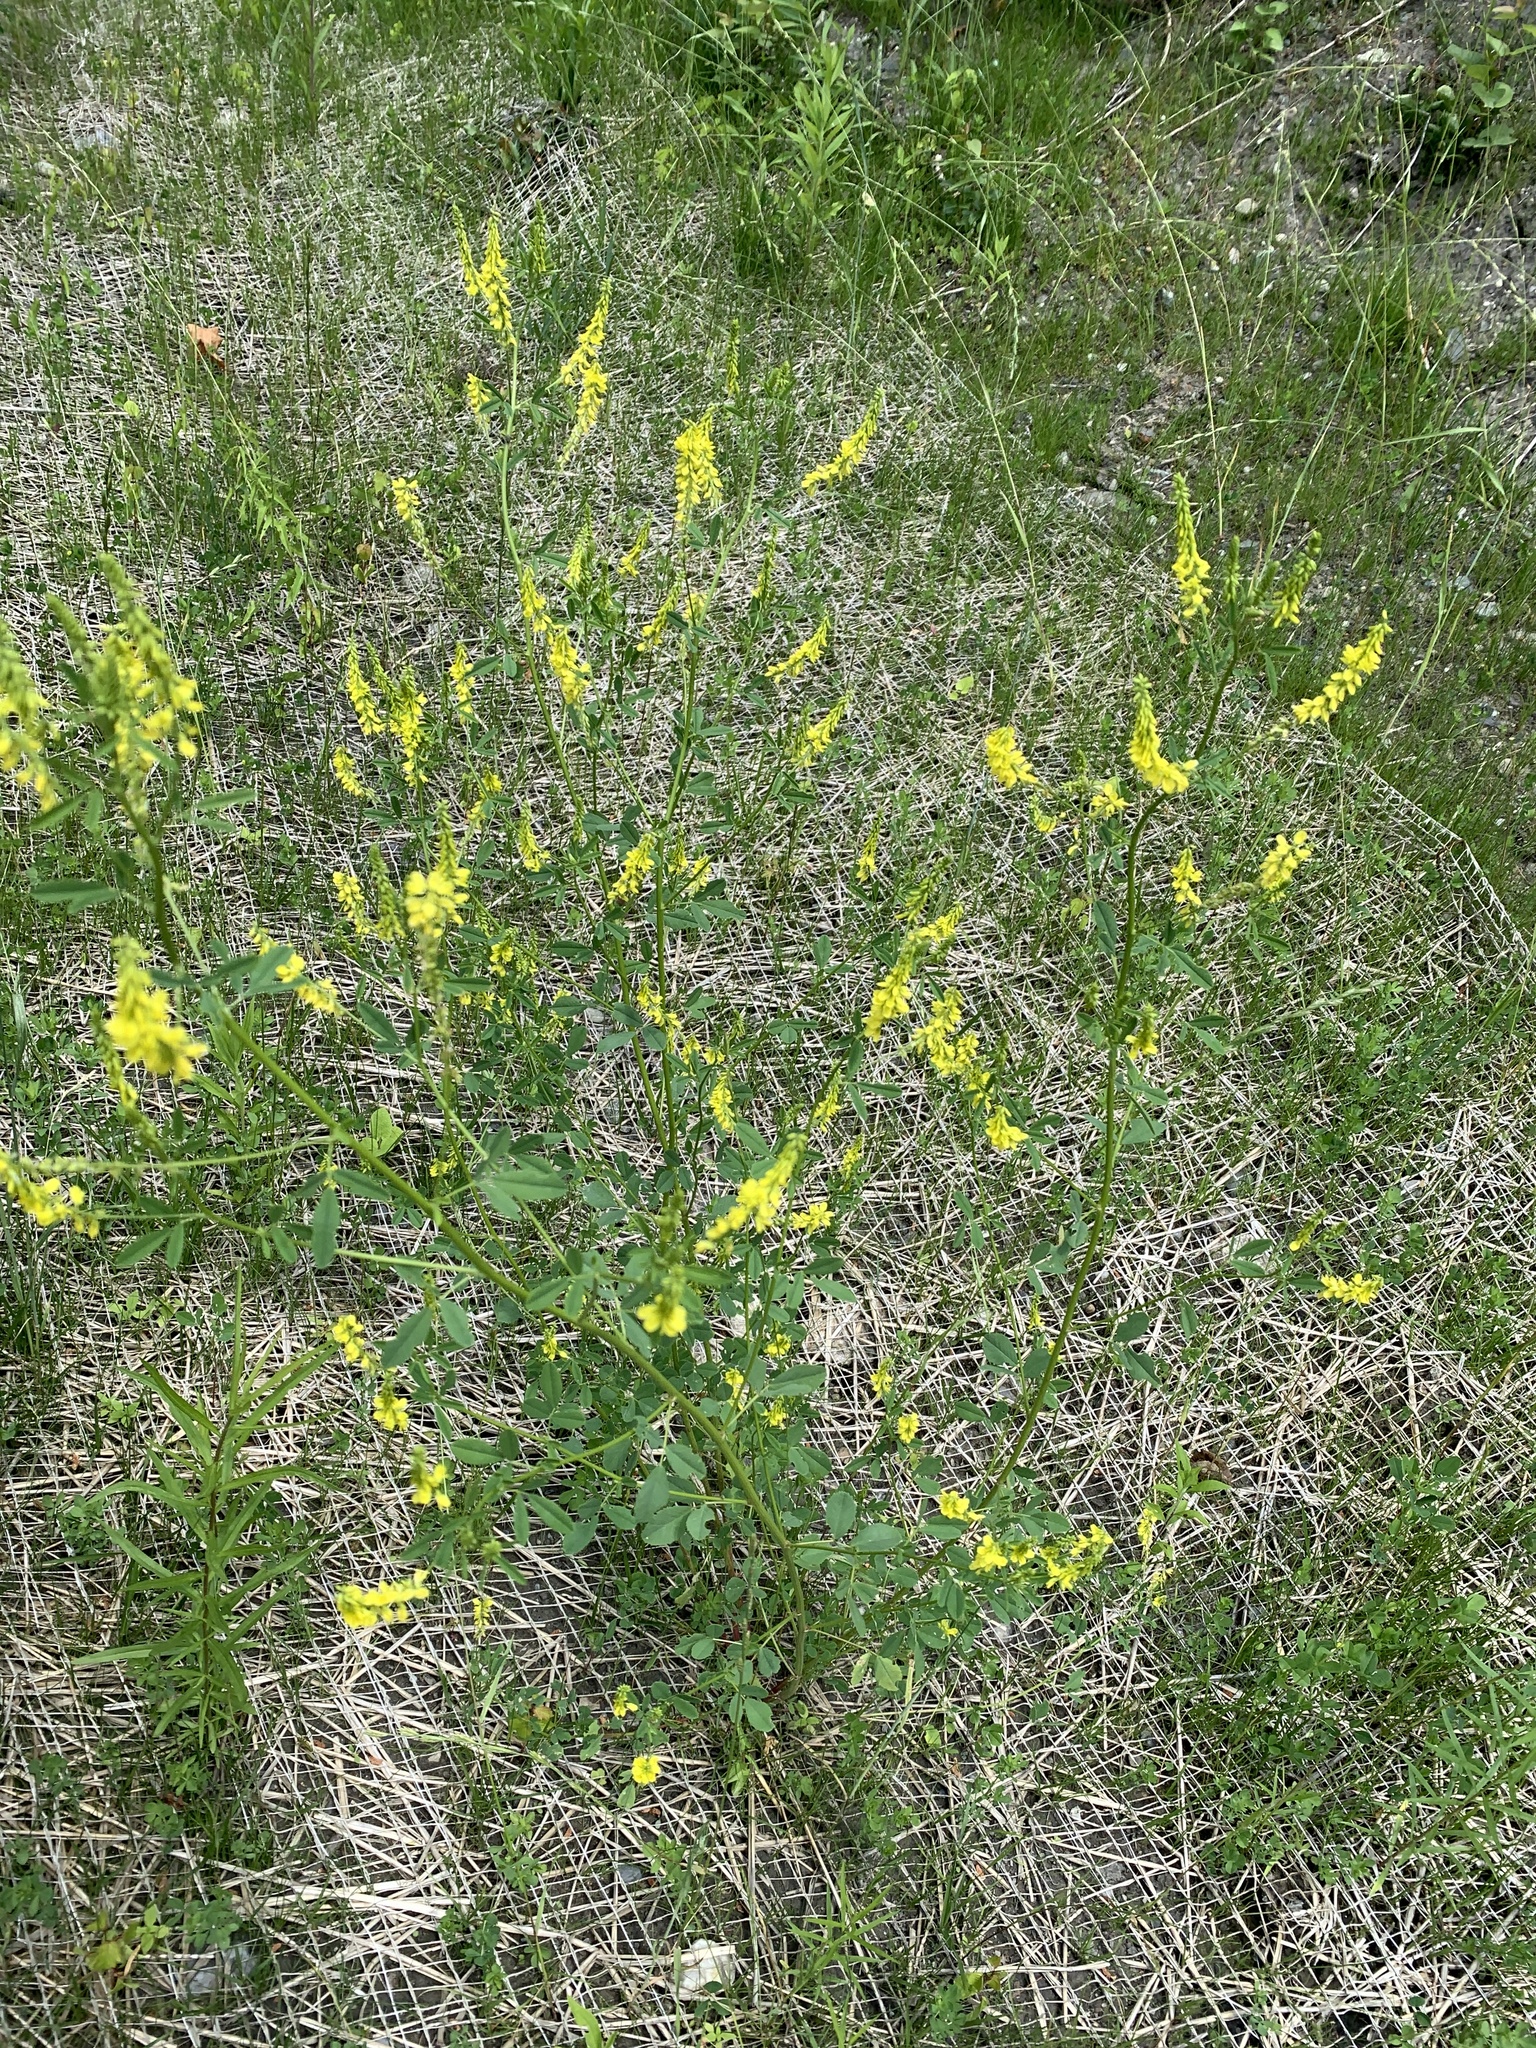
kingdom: Plantae
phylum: Tracheophyta
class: Magnoliopsida
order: Fabales
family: Fabaceae
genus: Melilotus
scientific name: Melilotus officinalis
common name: Sweetclover
